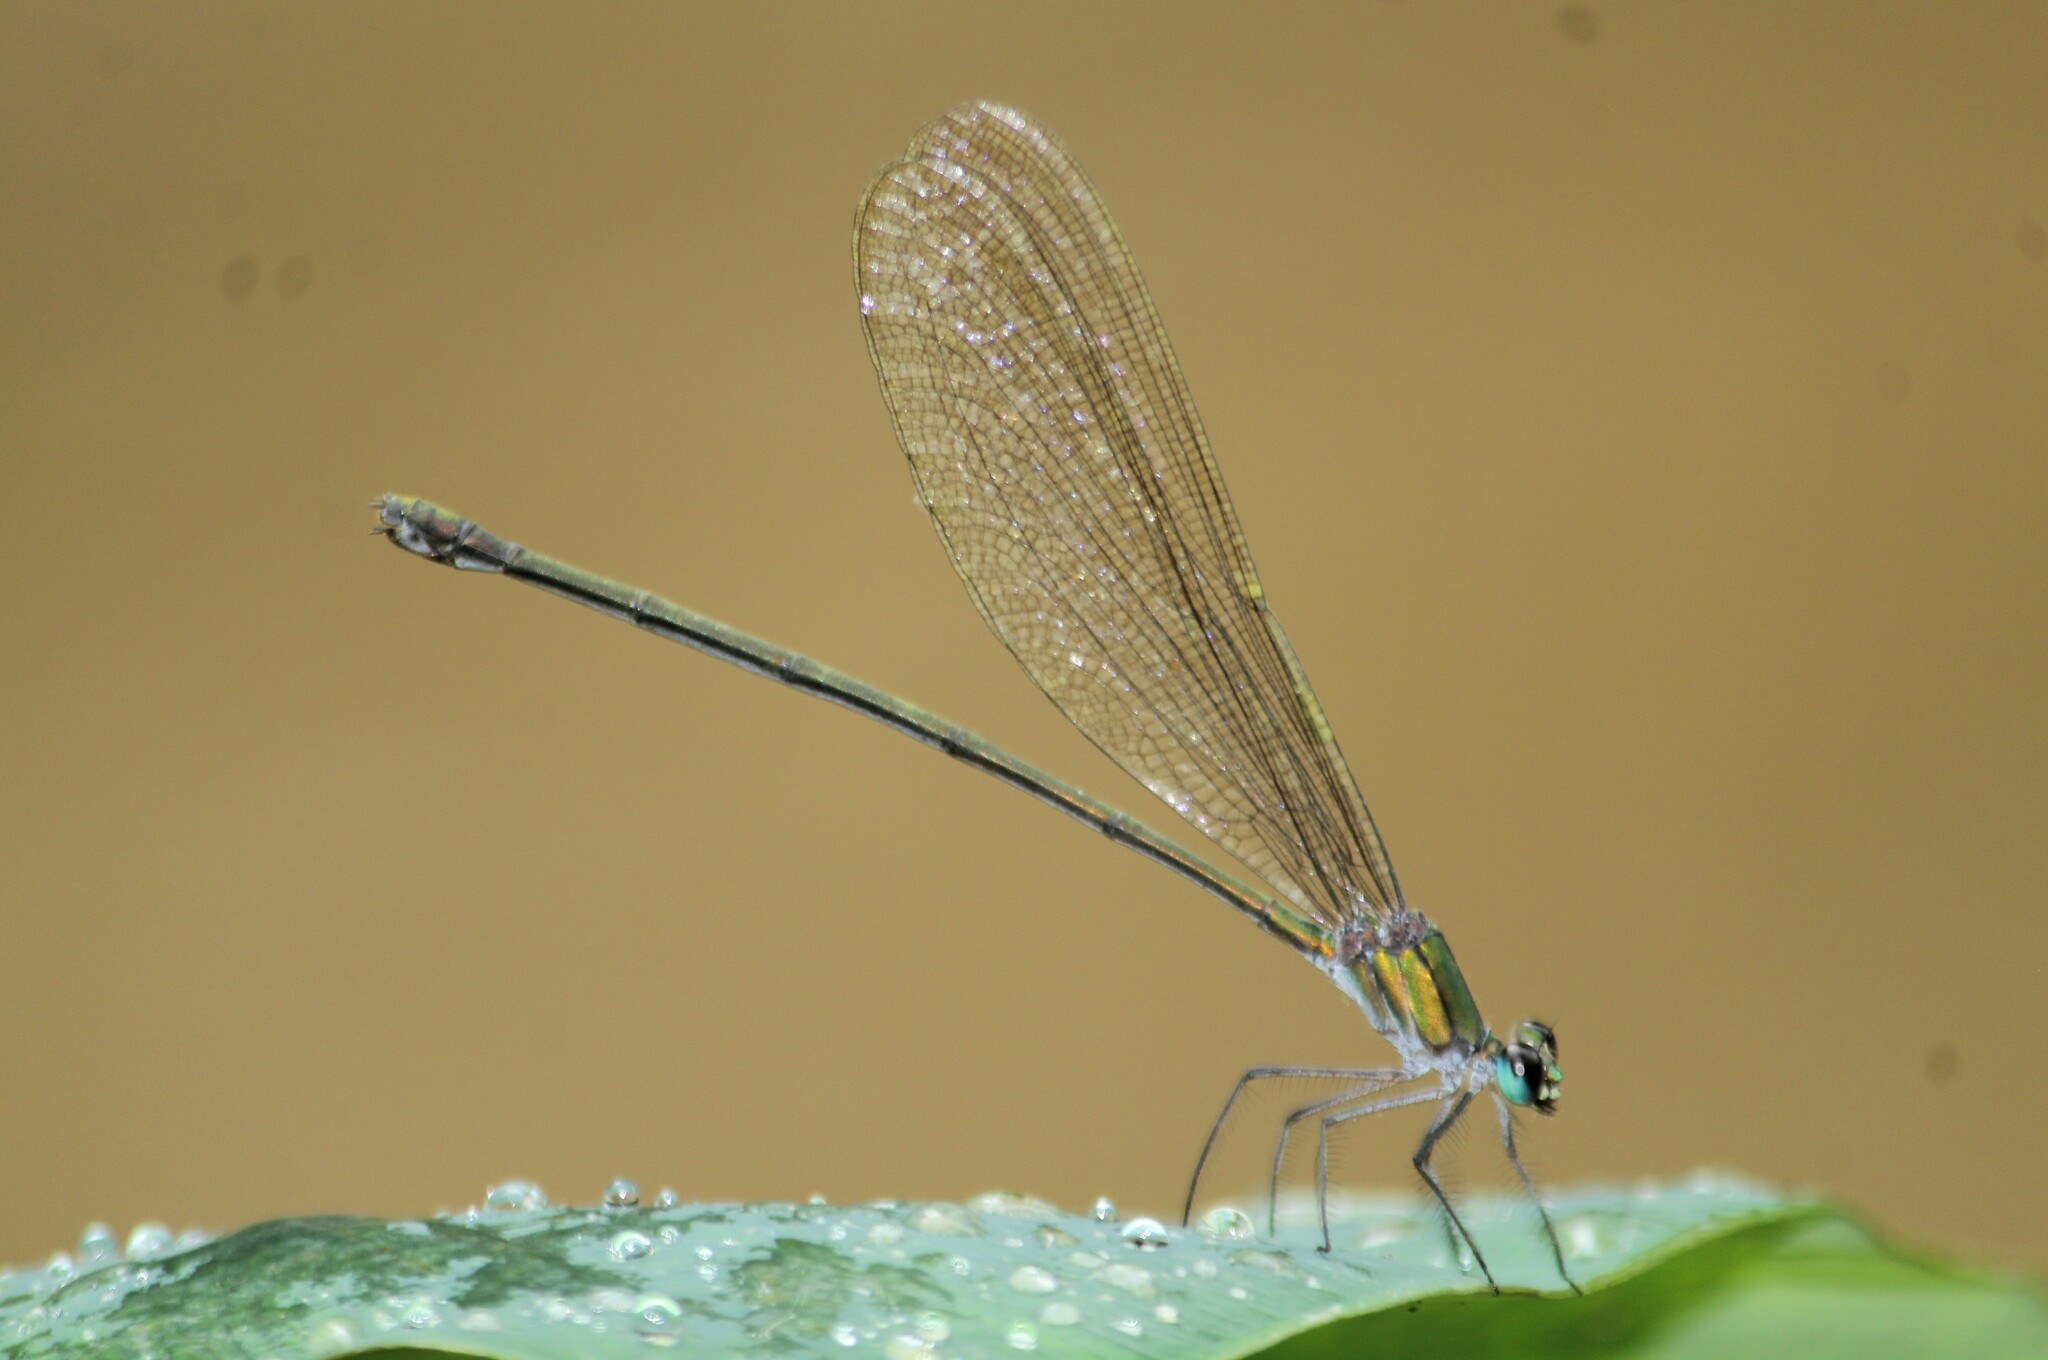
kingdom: Animalia
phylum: Arthropoda
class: Insecta
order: Odonata
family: Calopterygidae
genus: Vestalis
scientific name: Vestalis gracilis
